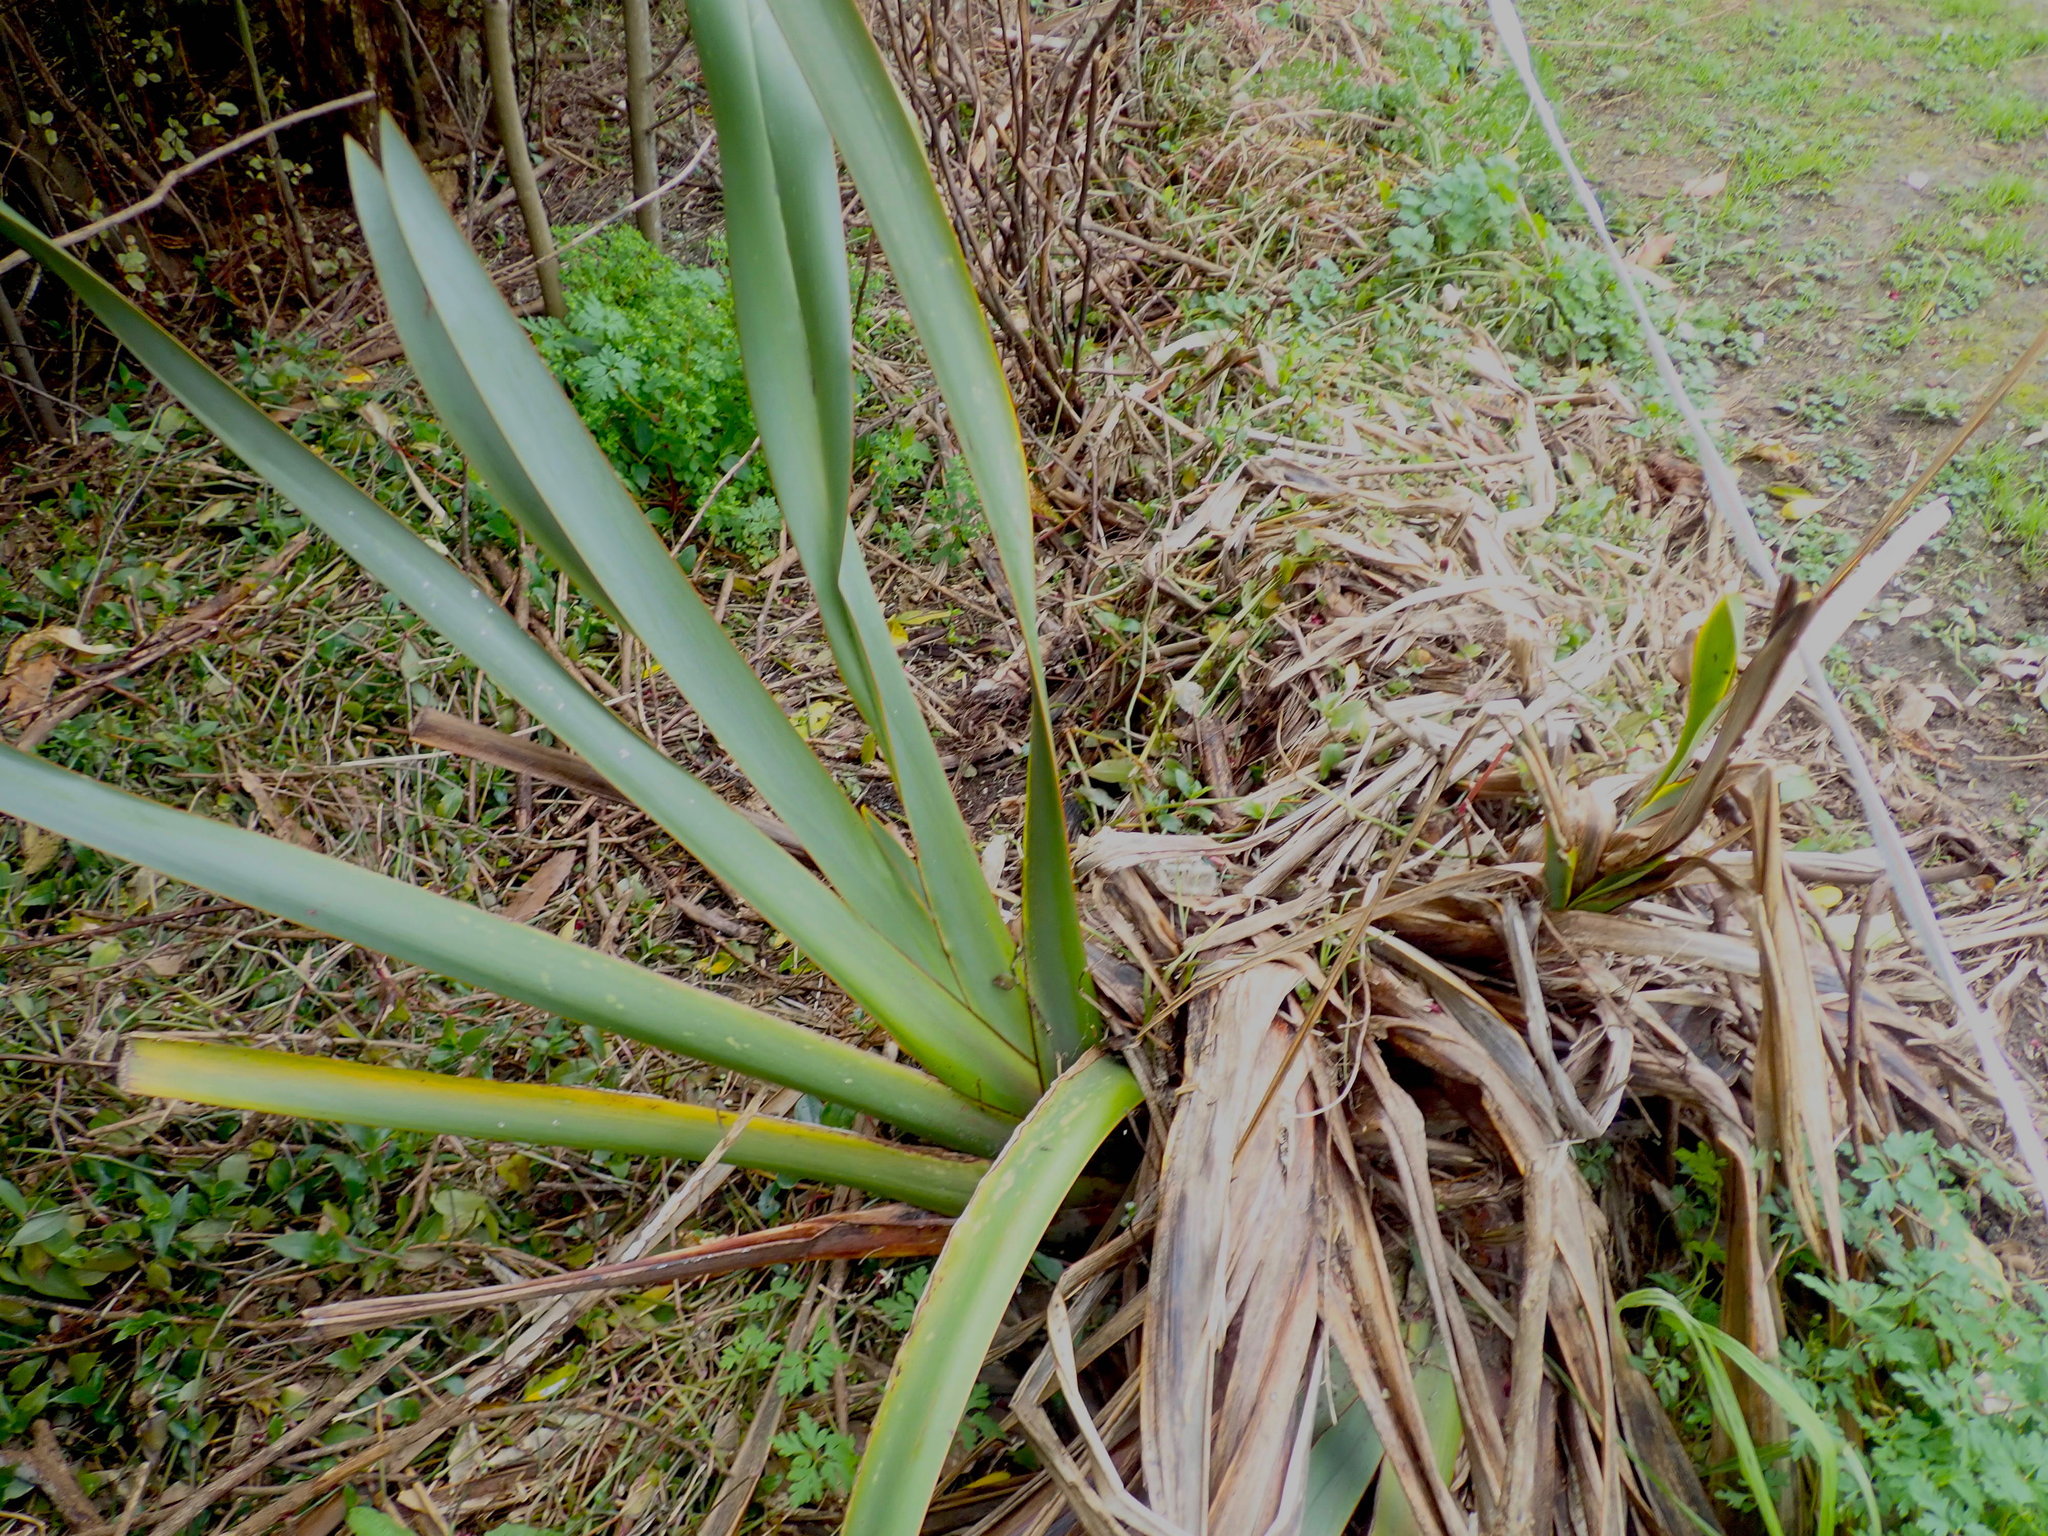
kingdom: Plantae
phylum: Tracheophyta
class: Liliopsida
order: Asparagales
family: Asphodelaceae
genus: Phormium
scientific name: Phormium tenax
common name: New zealand flax
